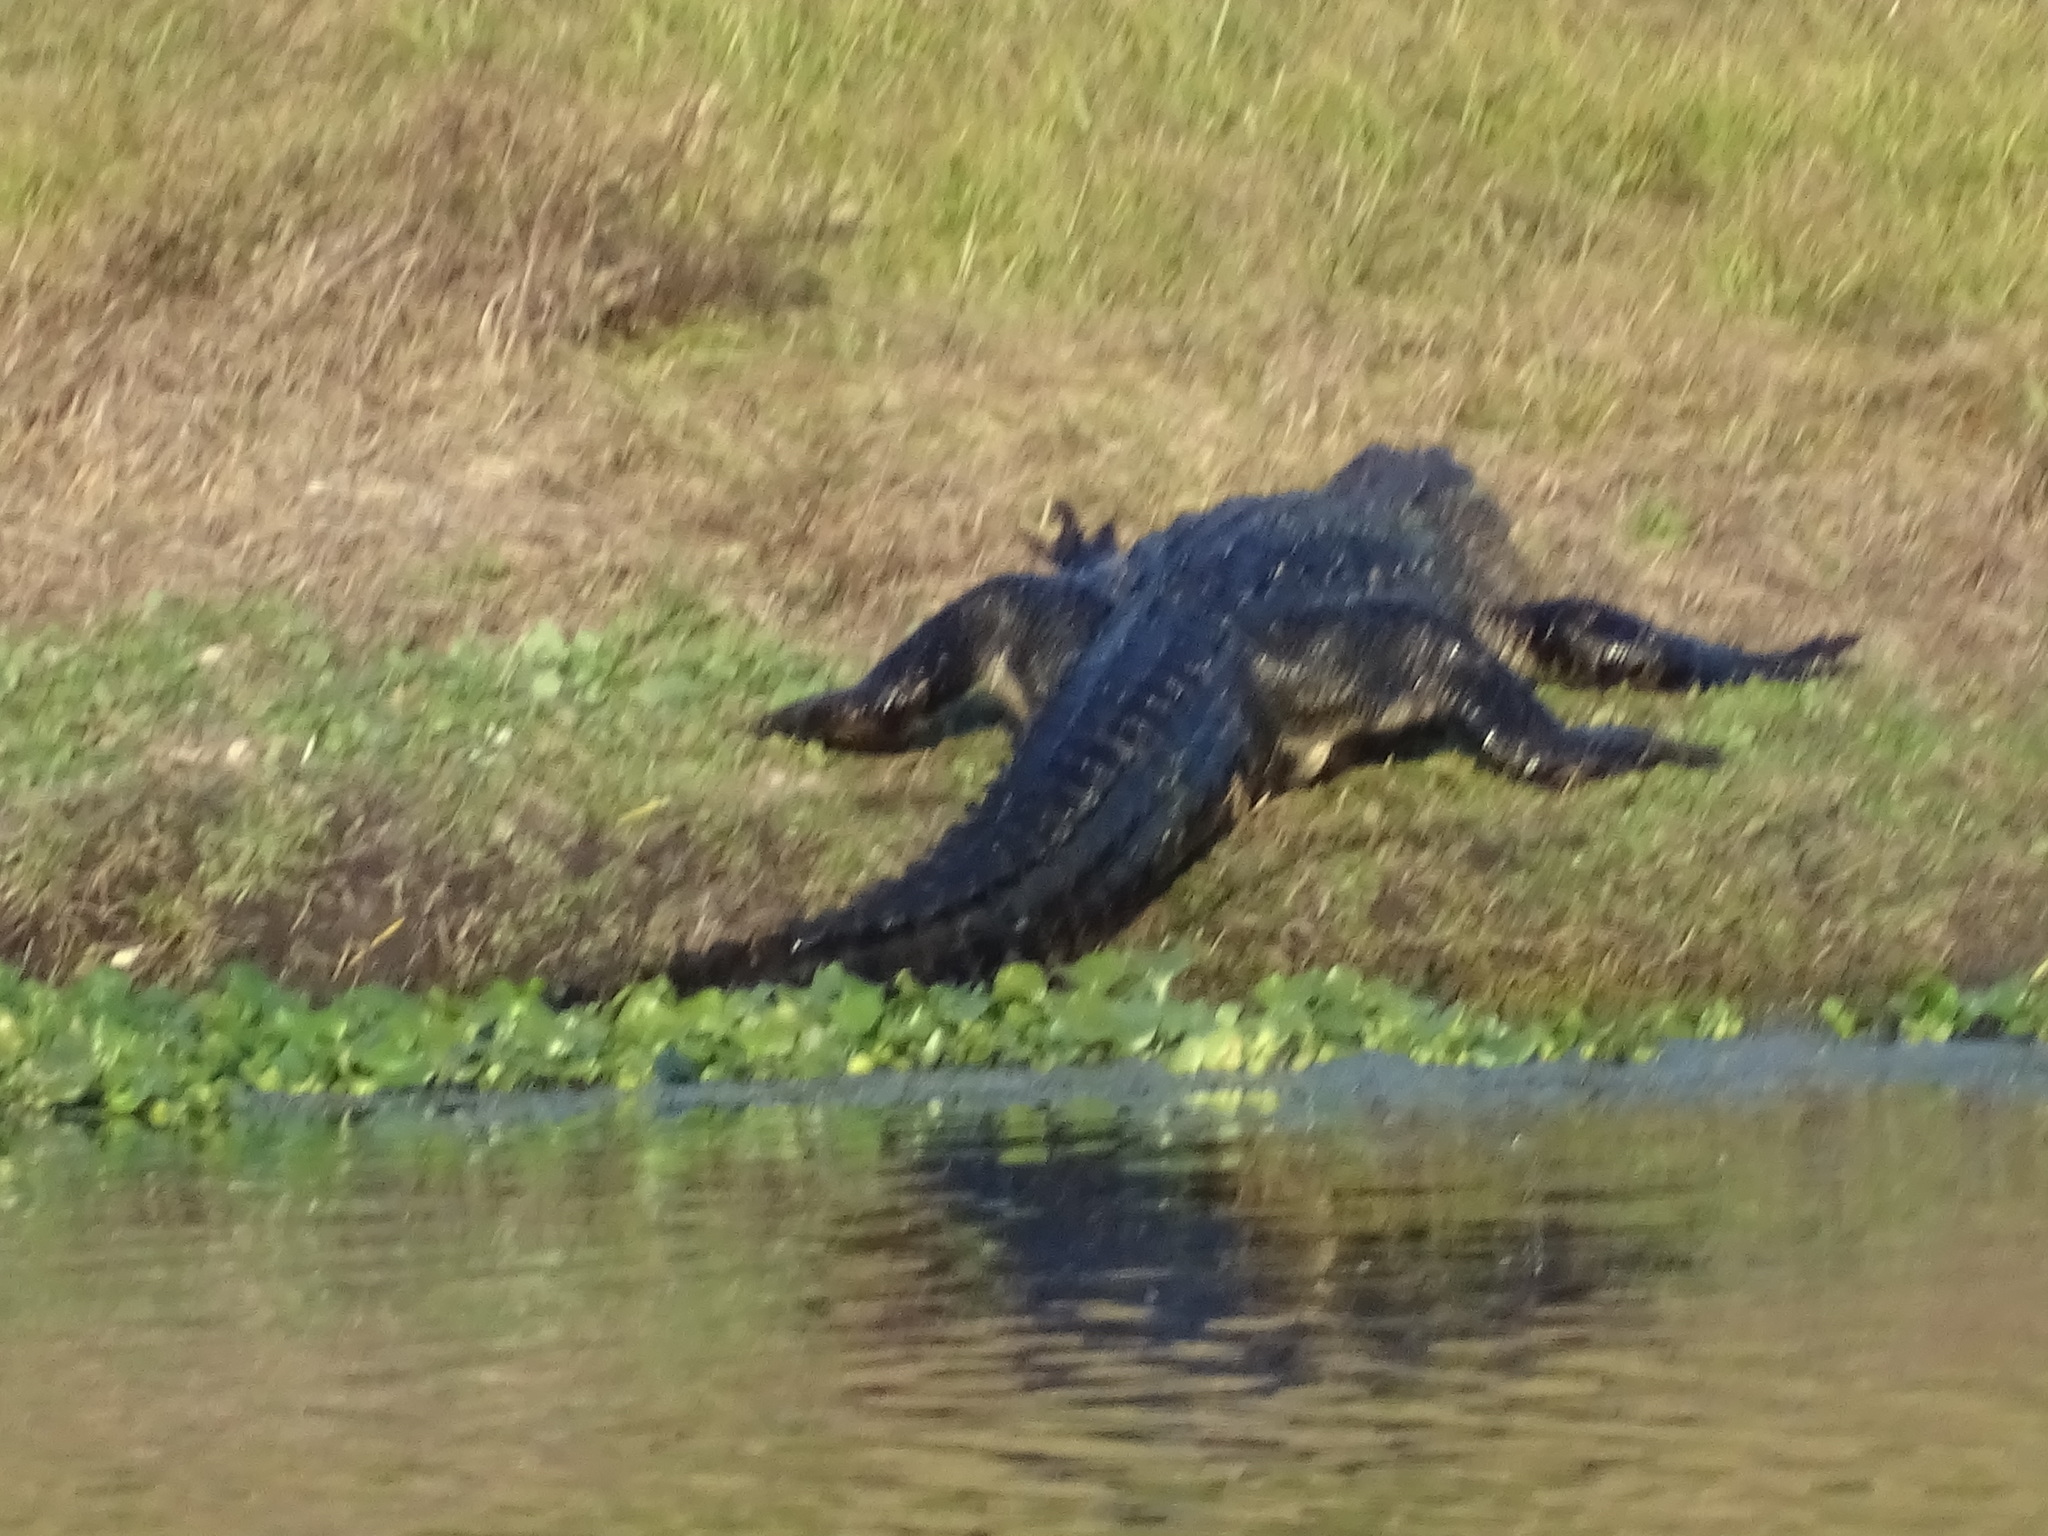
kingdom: Animalia
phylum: Chordata
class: Crocodylia
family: Alligatoridae
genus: Alligator
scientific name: Alligator mississippiensis
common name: American alligator
